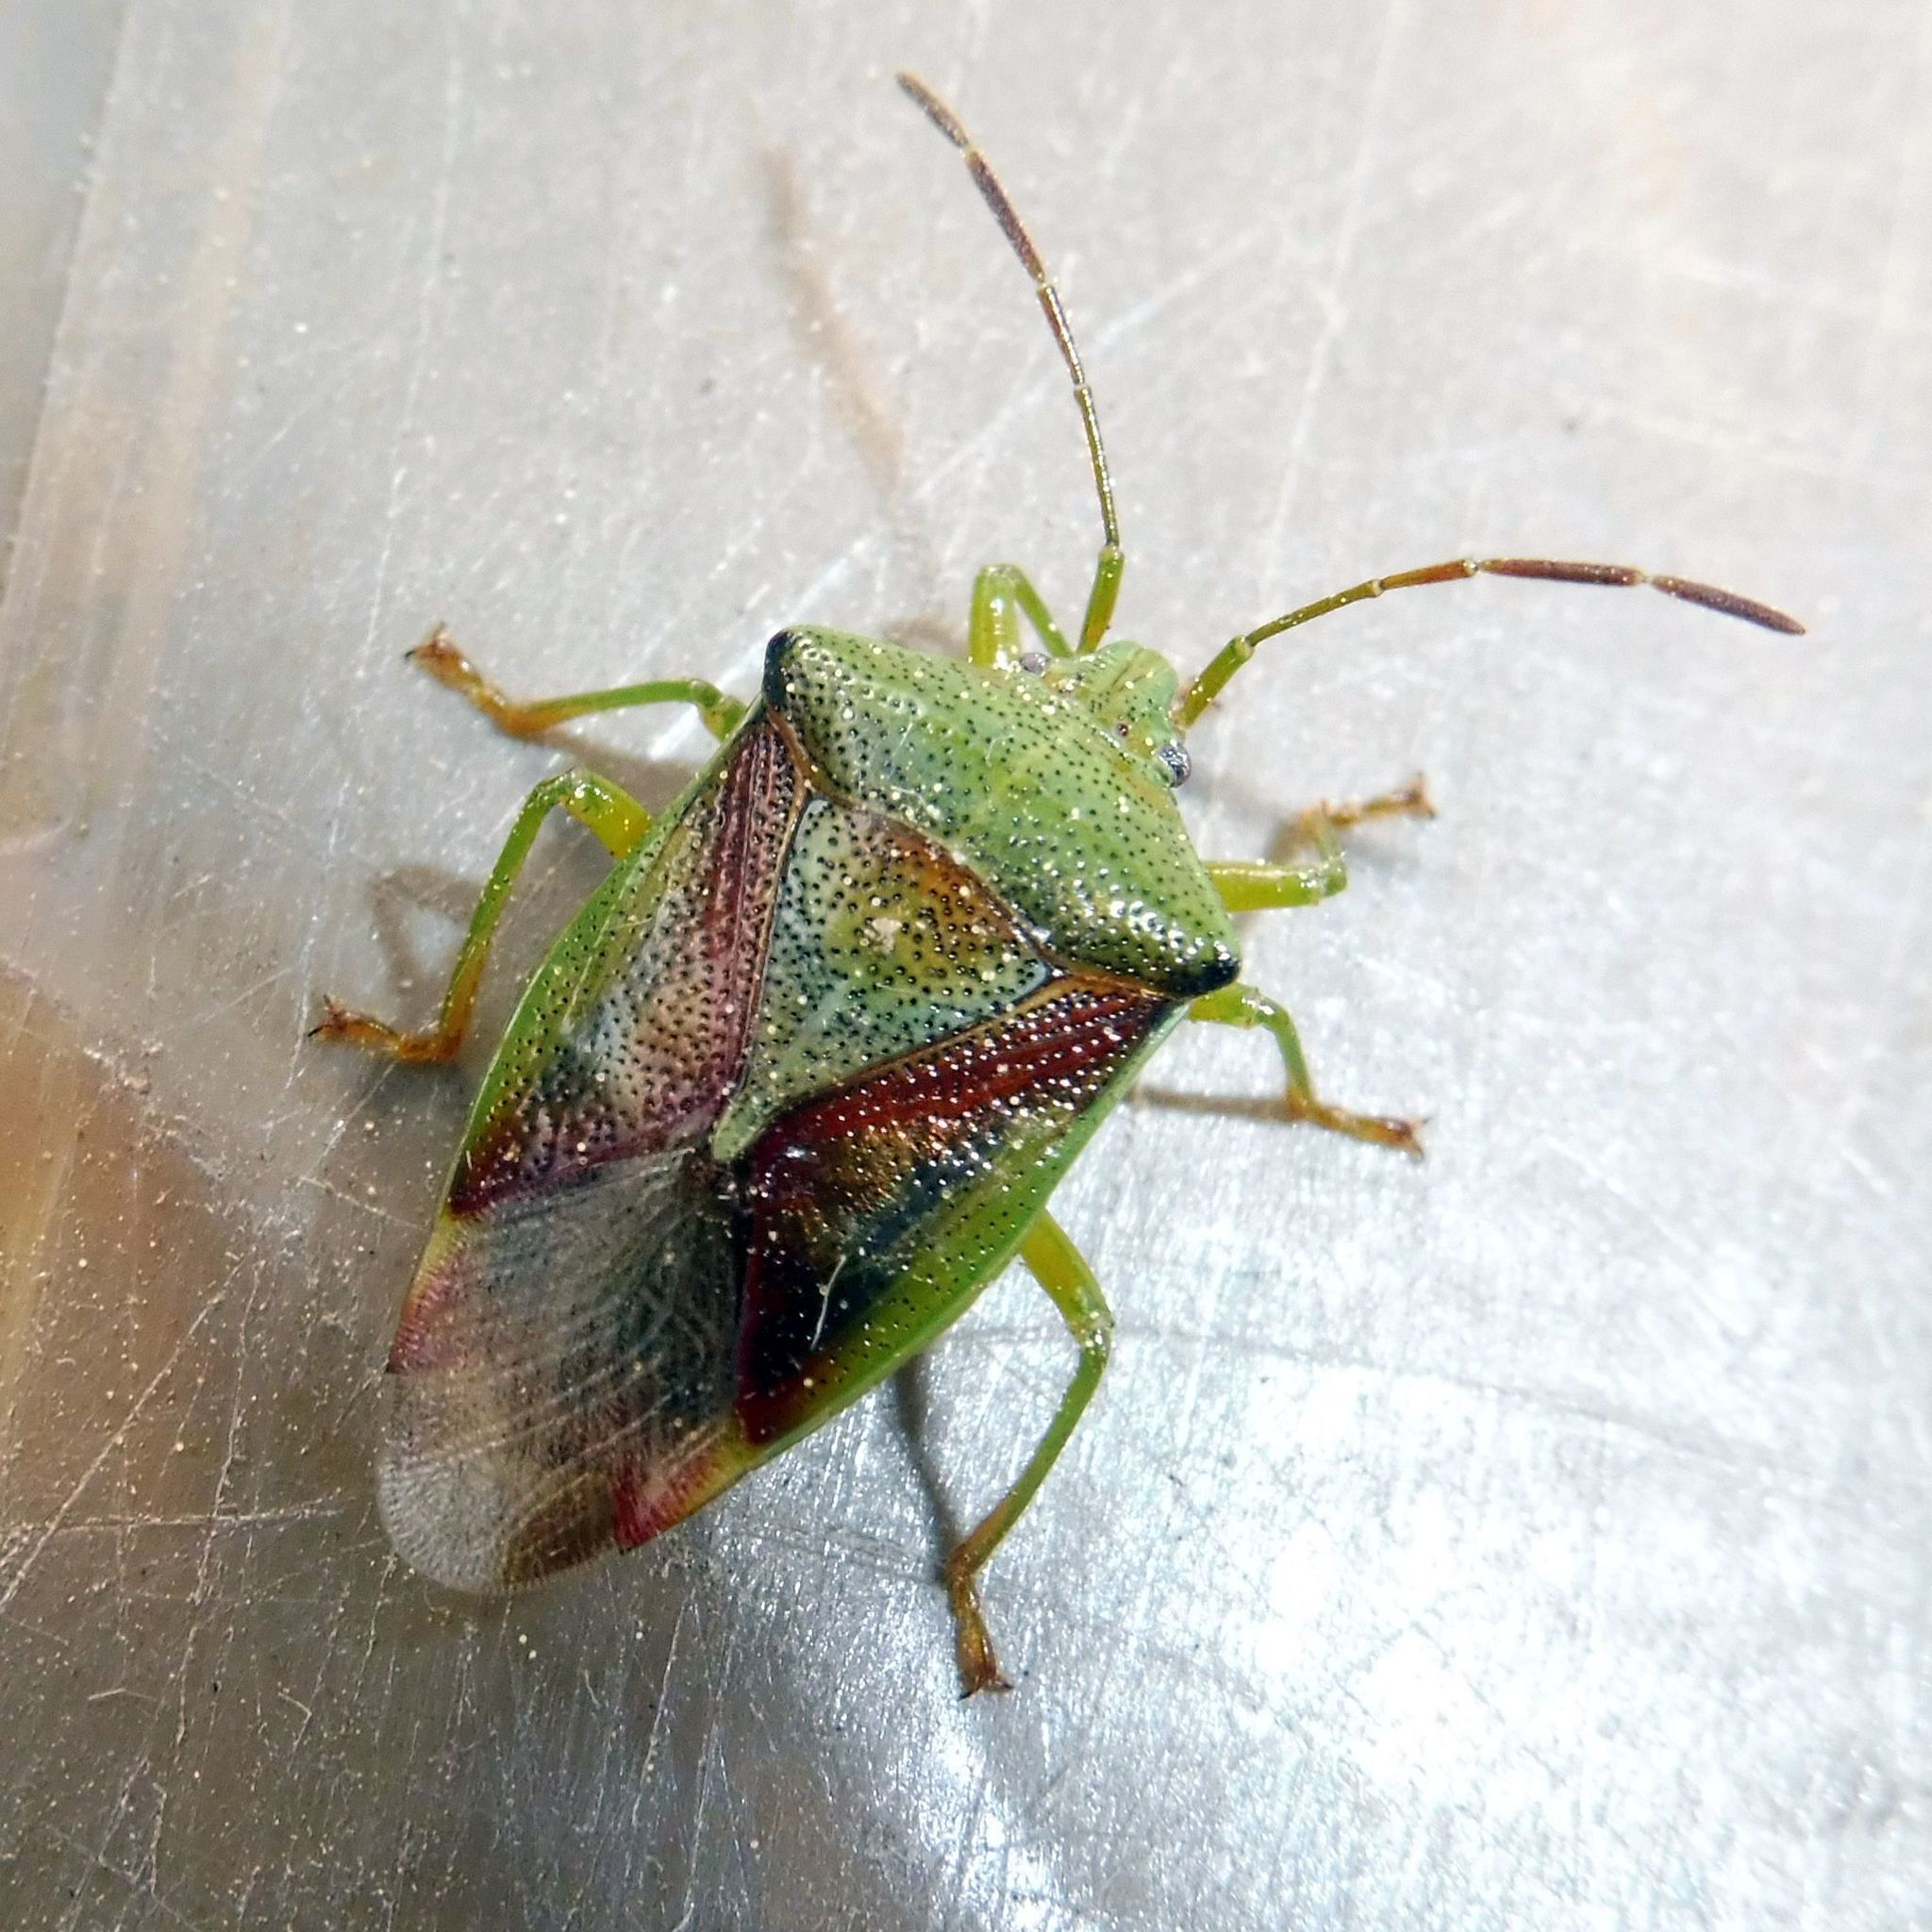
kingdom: Animalia
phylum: Arthropoda
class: Insecta
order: Hemiptera
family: Acanthosomatidae
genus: Elasmostethus
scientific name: Elasmostethus interstinctus
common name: Birch shieldbug
